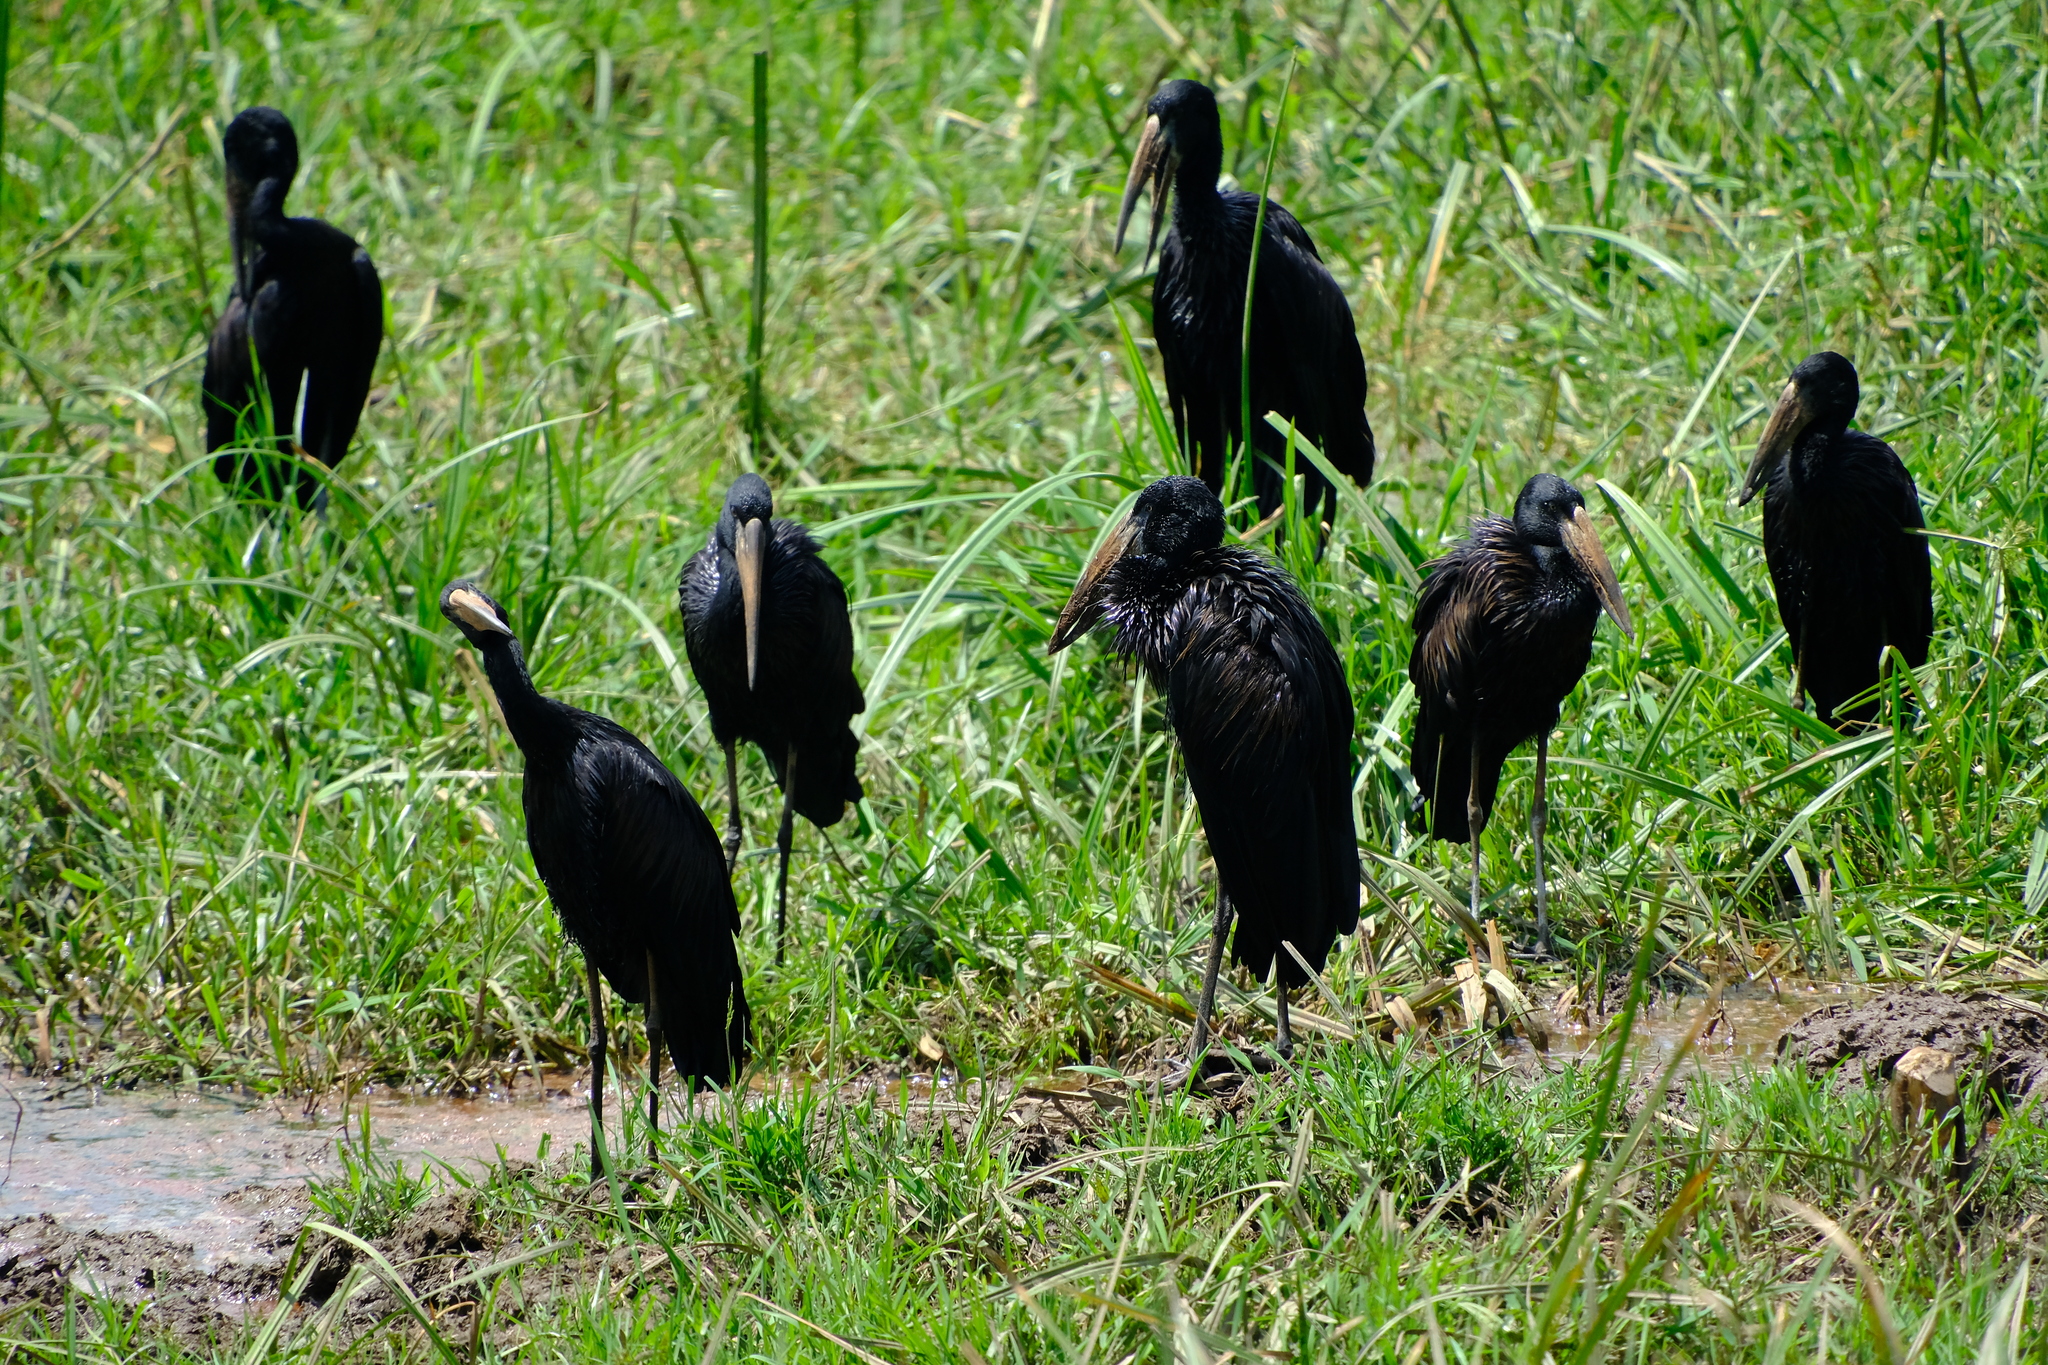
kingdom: Animalia
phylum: Chordata
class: Aves
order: Ciconiiformes
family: Ciconiidae
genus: Anastomus
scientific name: Anastomus lamelligerus
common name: African openbill
